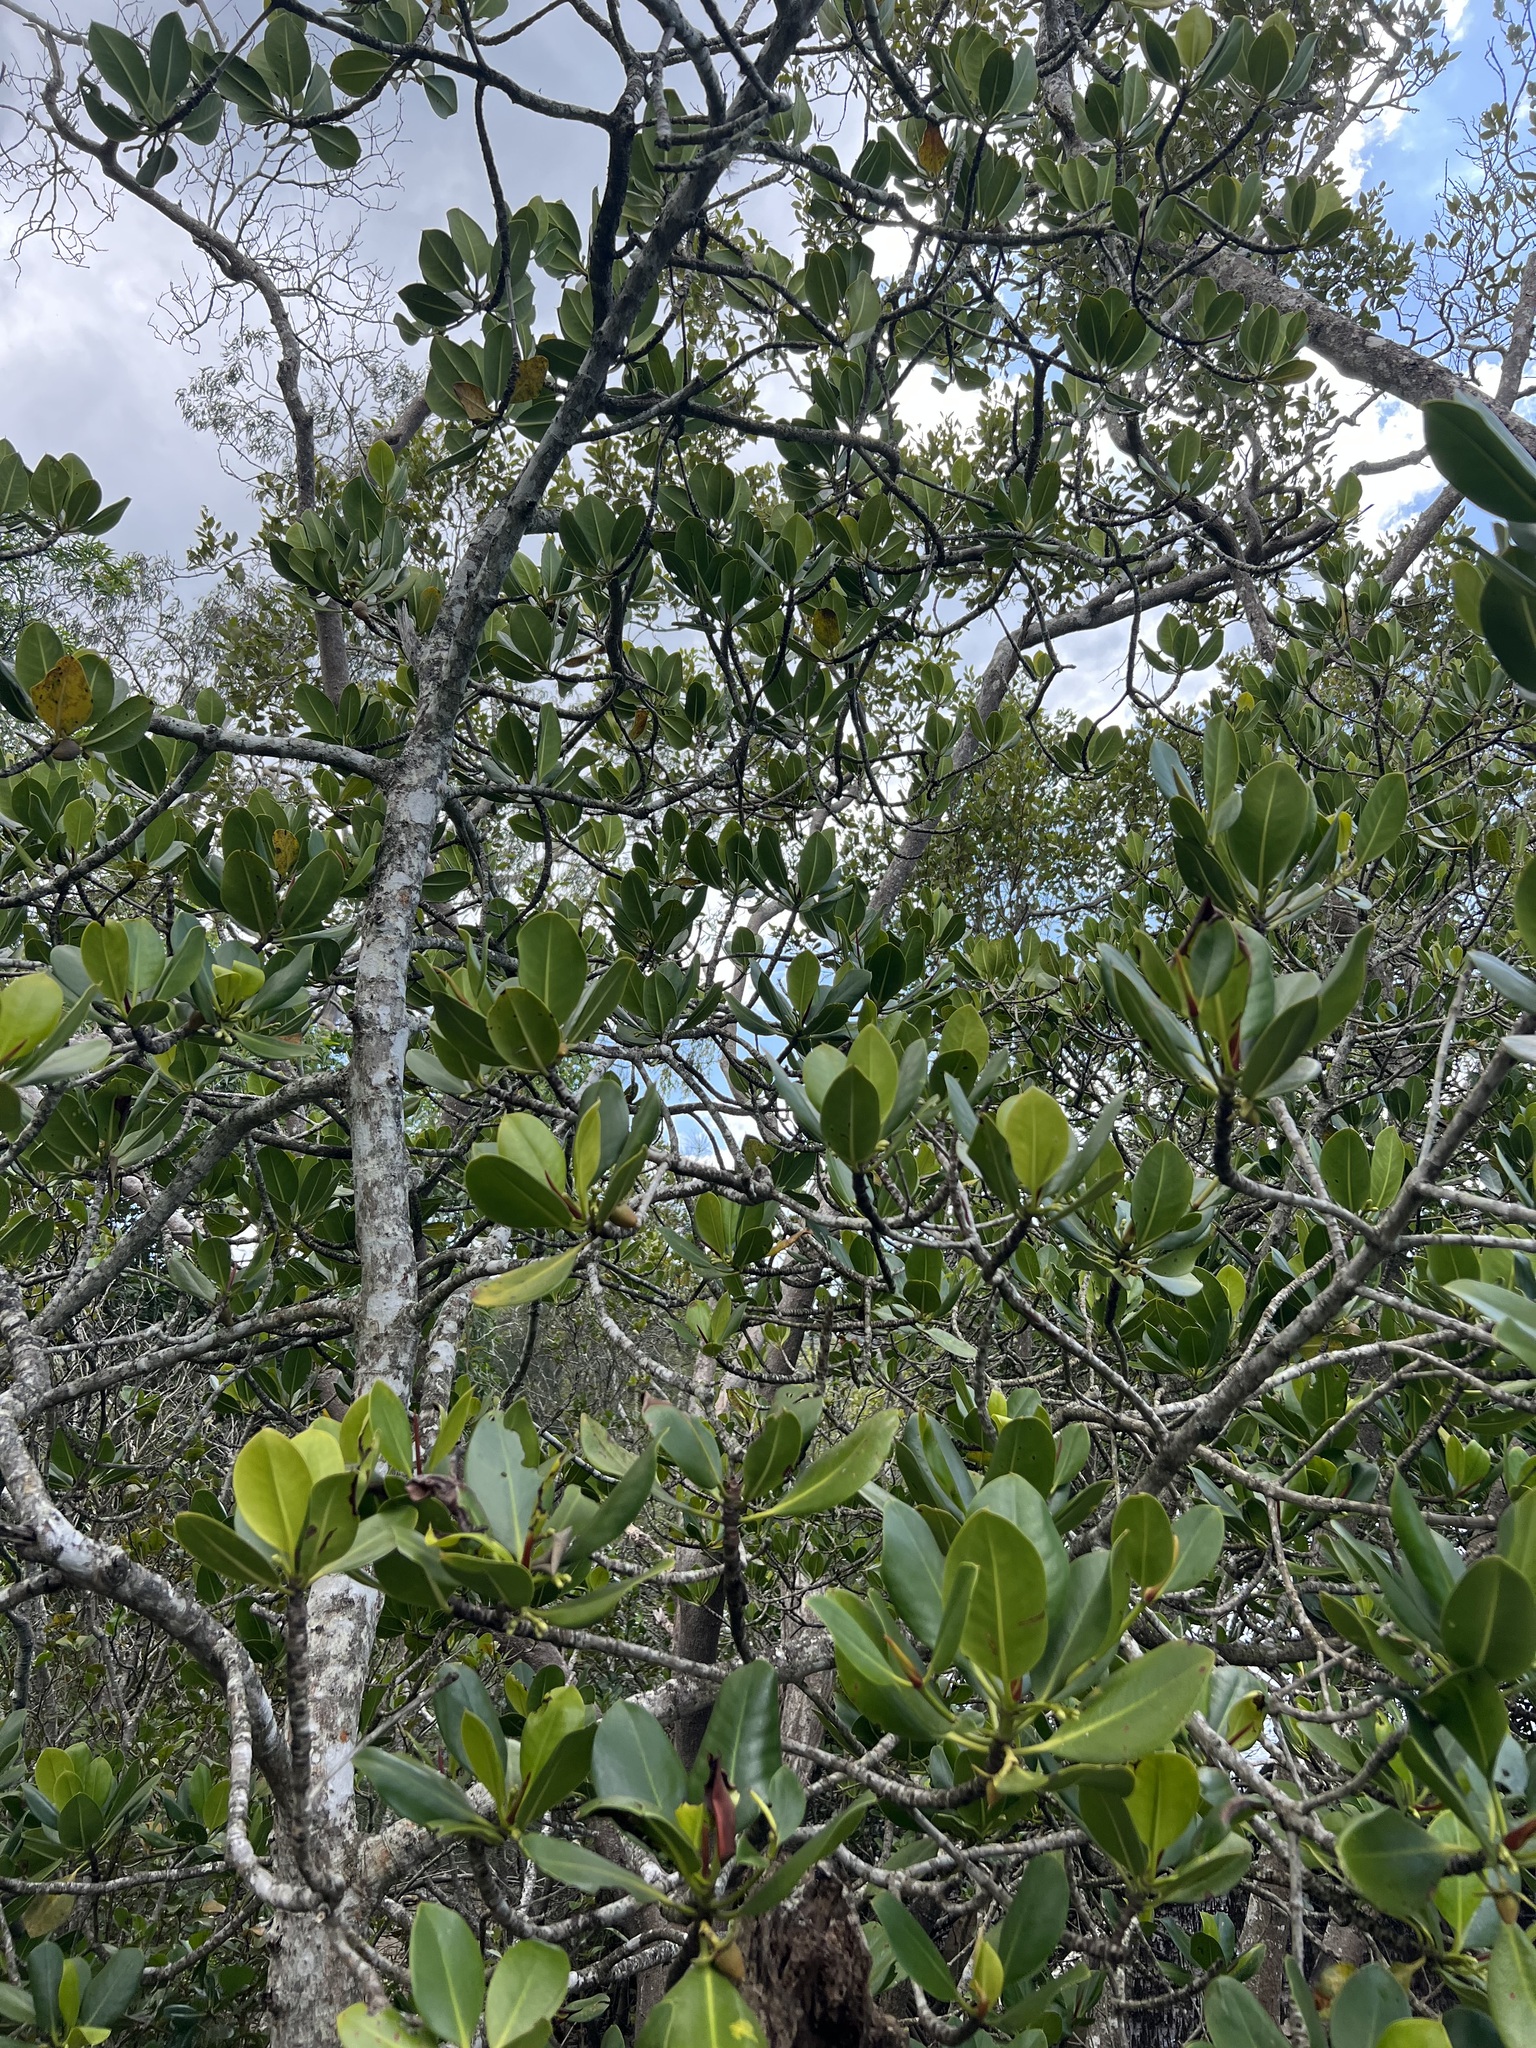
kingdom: Plantae
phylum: Tracheophyta
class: Magnoliopsida
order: Malpighiales
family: Rhizophoraceae
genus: Rhizophora
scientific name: Rhizophora stylosa
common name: Red mangrove
